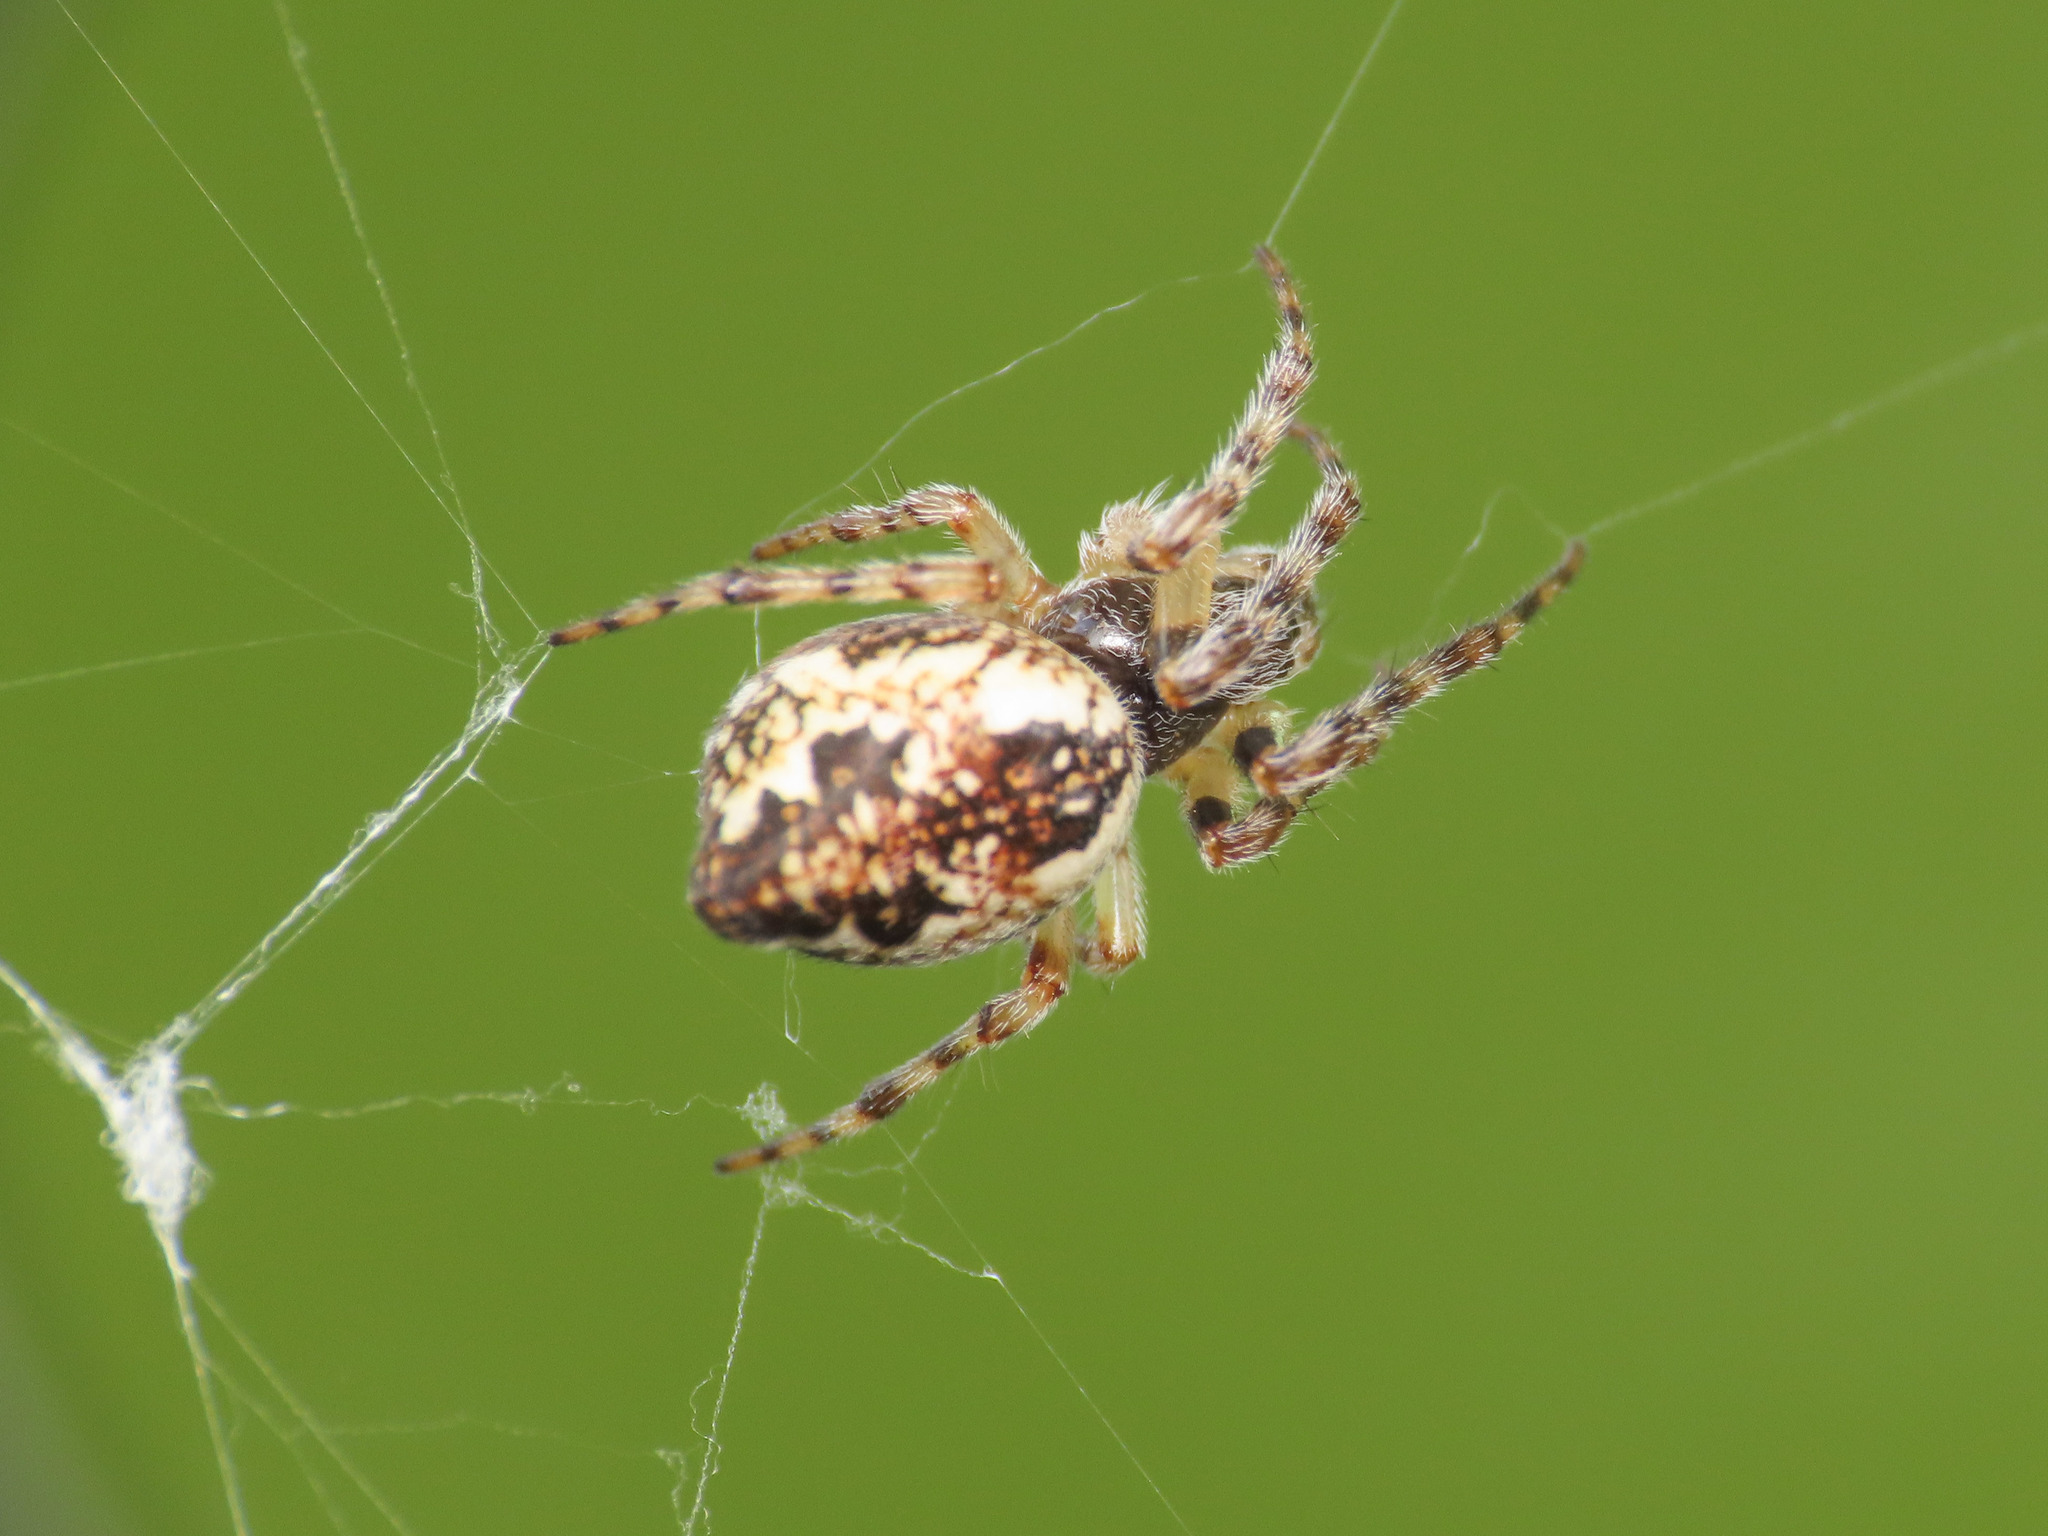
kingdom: Animalia
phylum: Arthropoda
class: Arachnida
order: Araneae
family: Araneidae
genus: Cyclosa
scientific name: Cyclosa conica
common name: Conical trashline orbweaver
